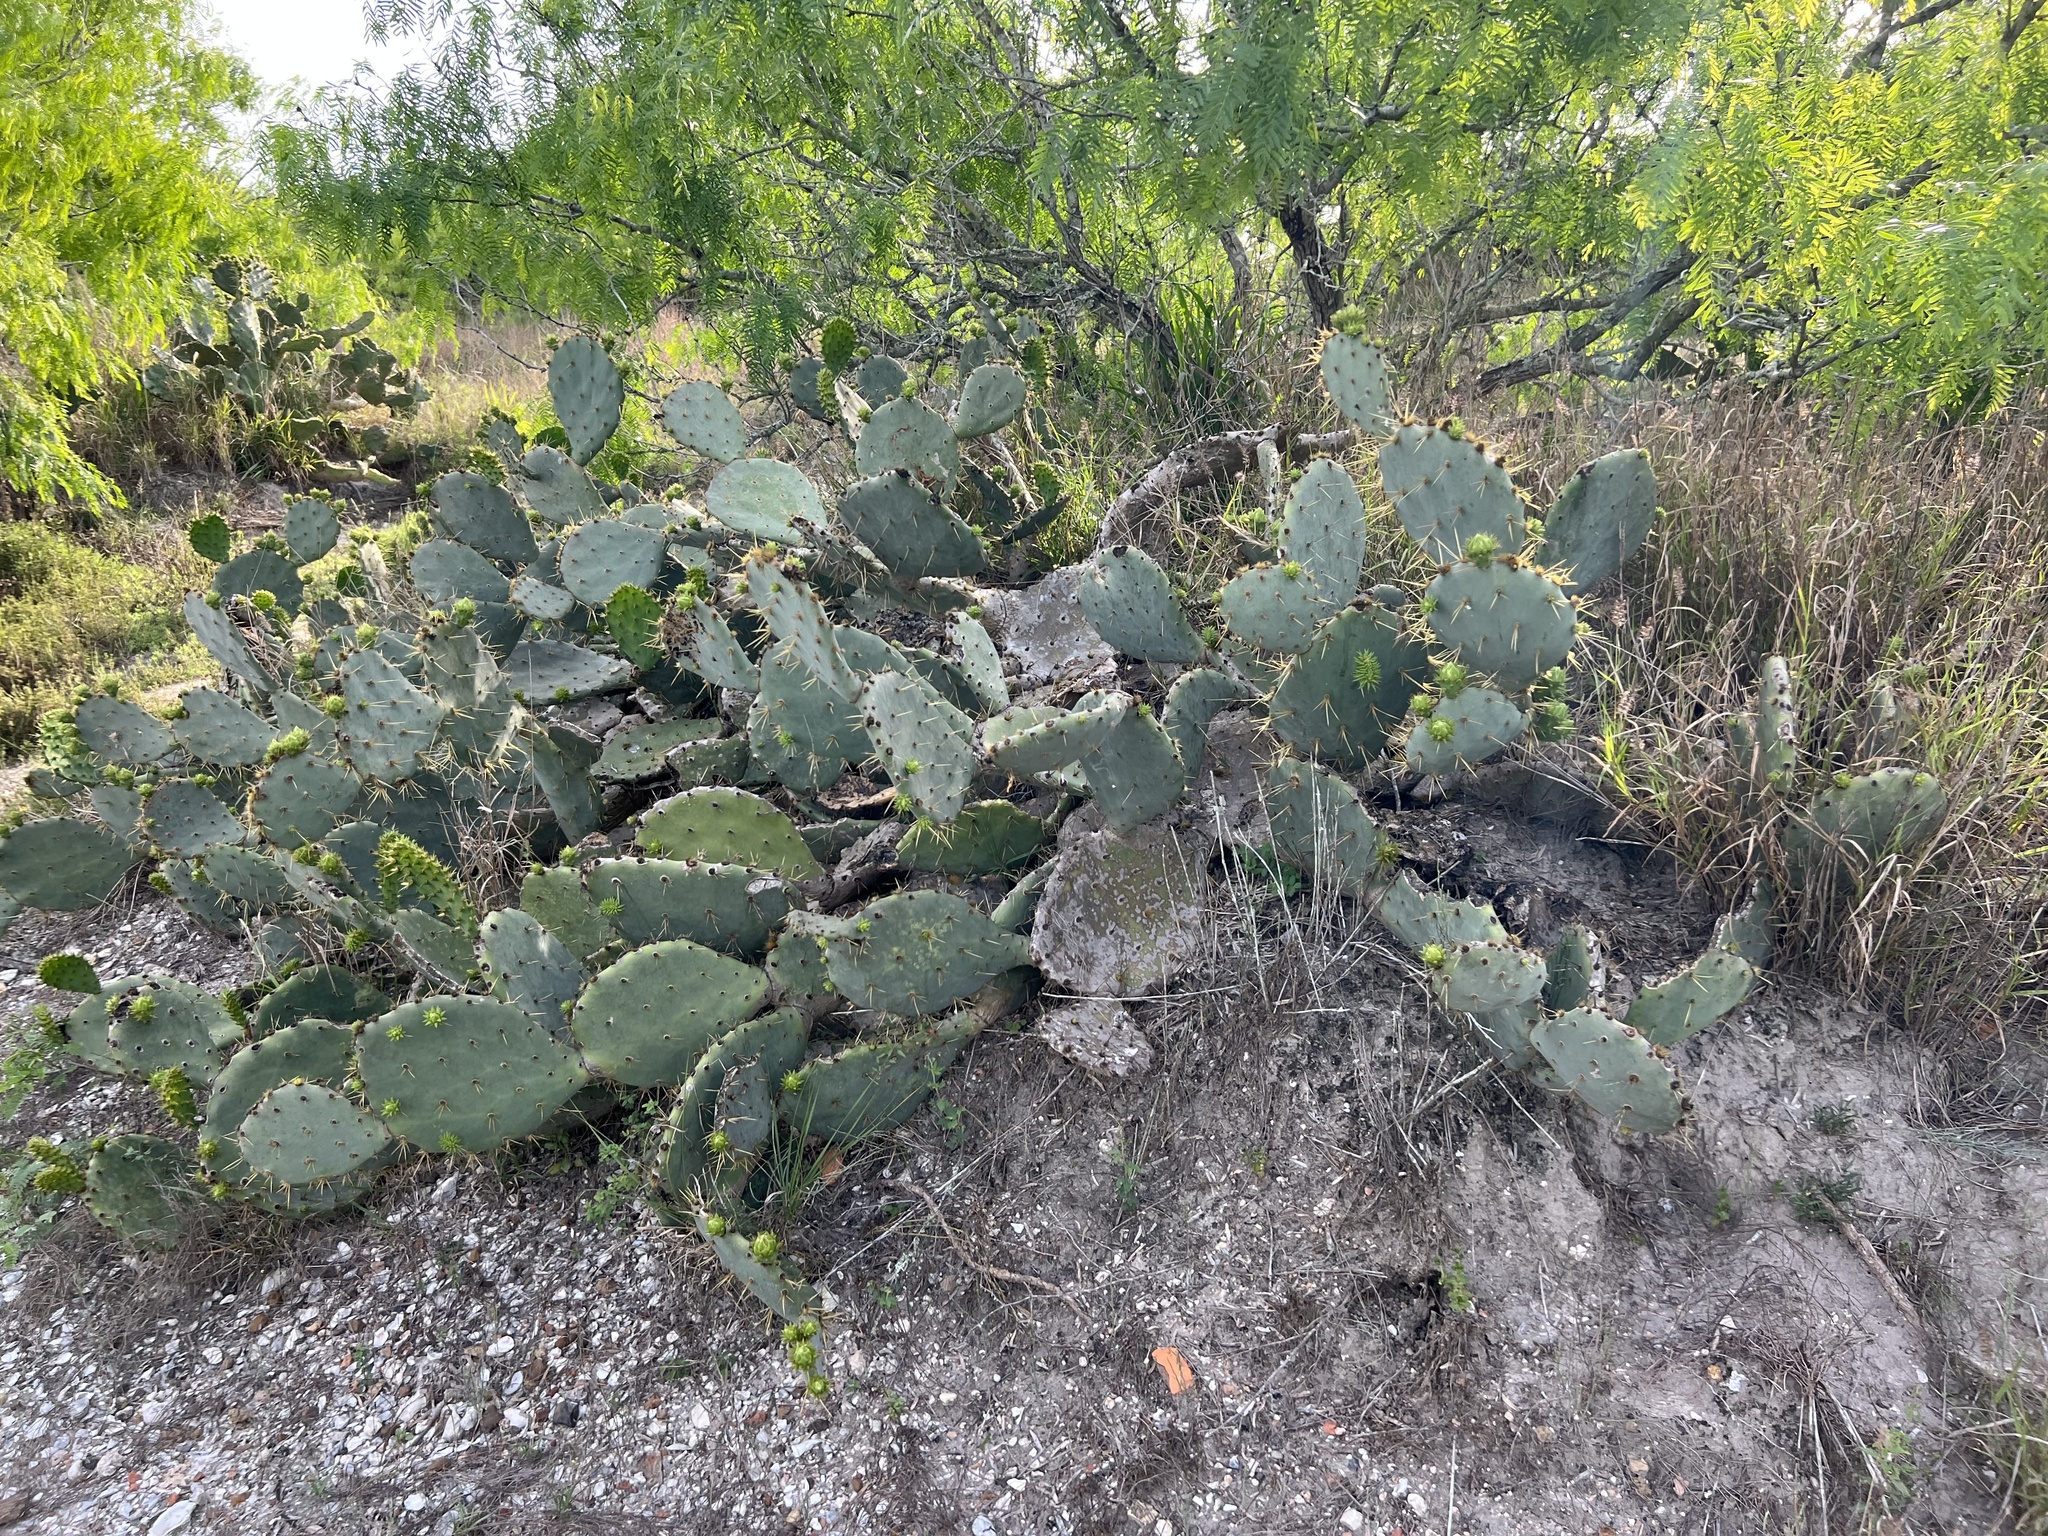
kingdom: Plantae
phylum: Tracheophyta
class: Magnoliopsida
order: Caryophyllales
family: Cactaceae
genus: Opuntia
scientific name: Opuntia engelmannii
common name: Cactus-apple
